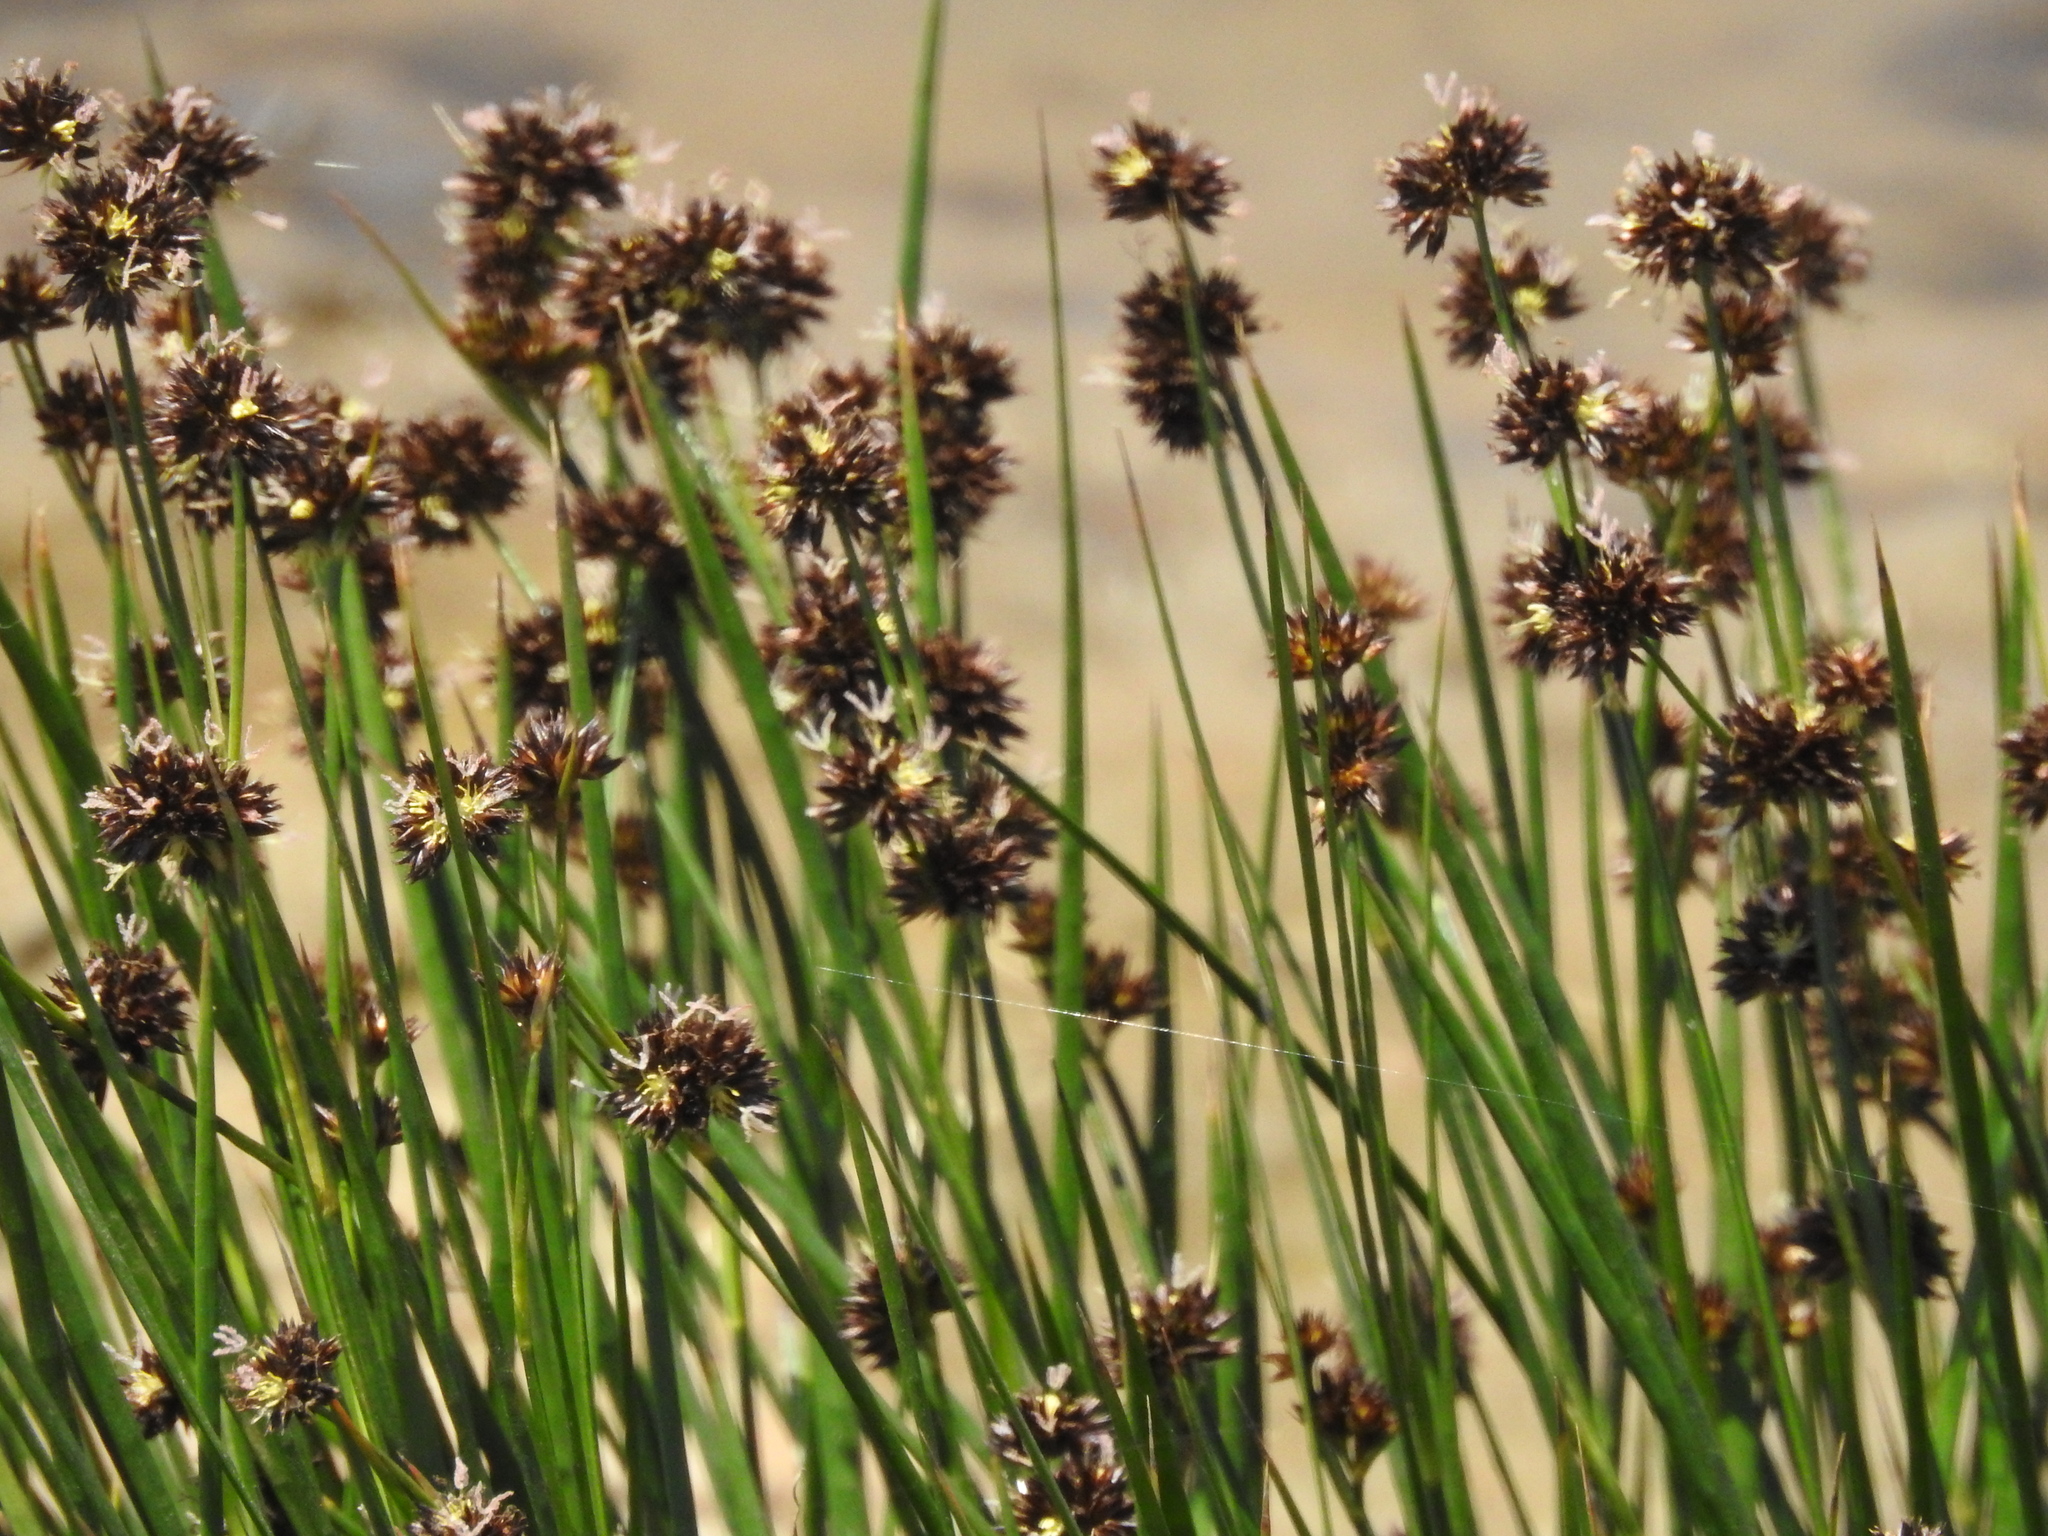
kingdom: Plantae
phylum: Tracheophyta
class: Liliopsida
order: Poales
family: Juncaceae
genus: Juncus
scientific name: Juncus phaeocephalus
